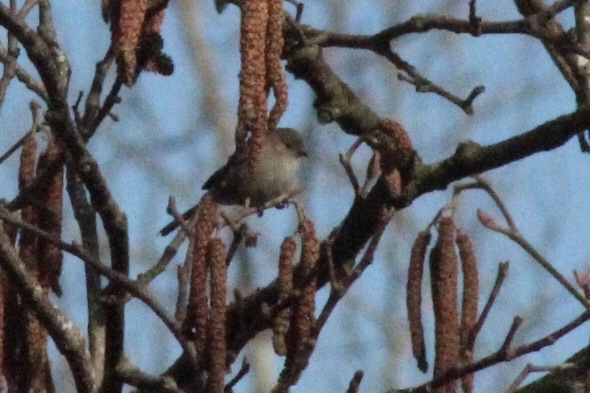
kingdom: Animalia
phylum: Chordata
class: Aves
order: Passeriformes
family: Aegithalidae
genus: Psaltriparus
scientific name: Psaltriparus minimus
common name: American bushtit
